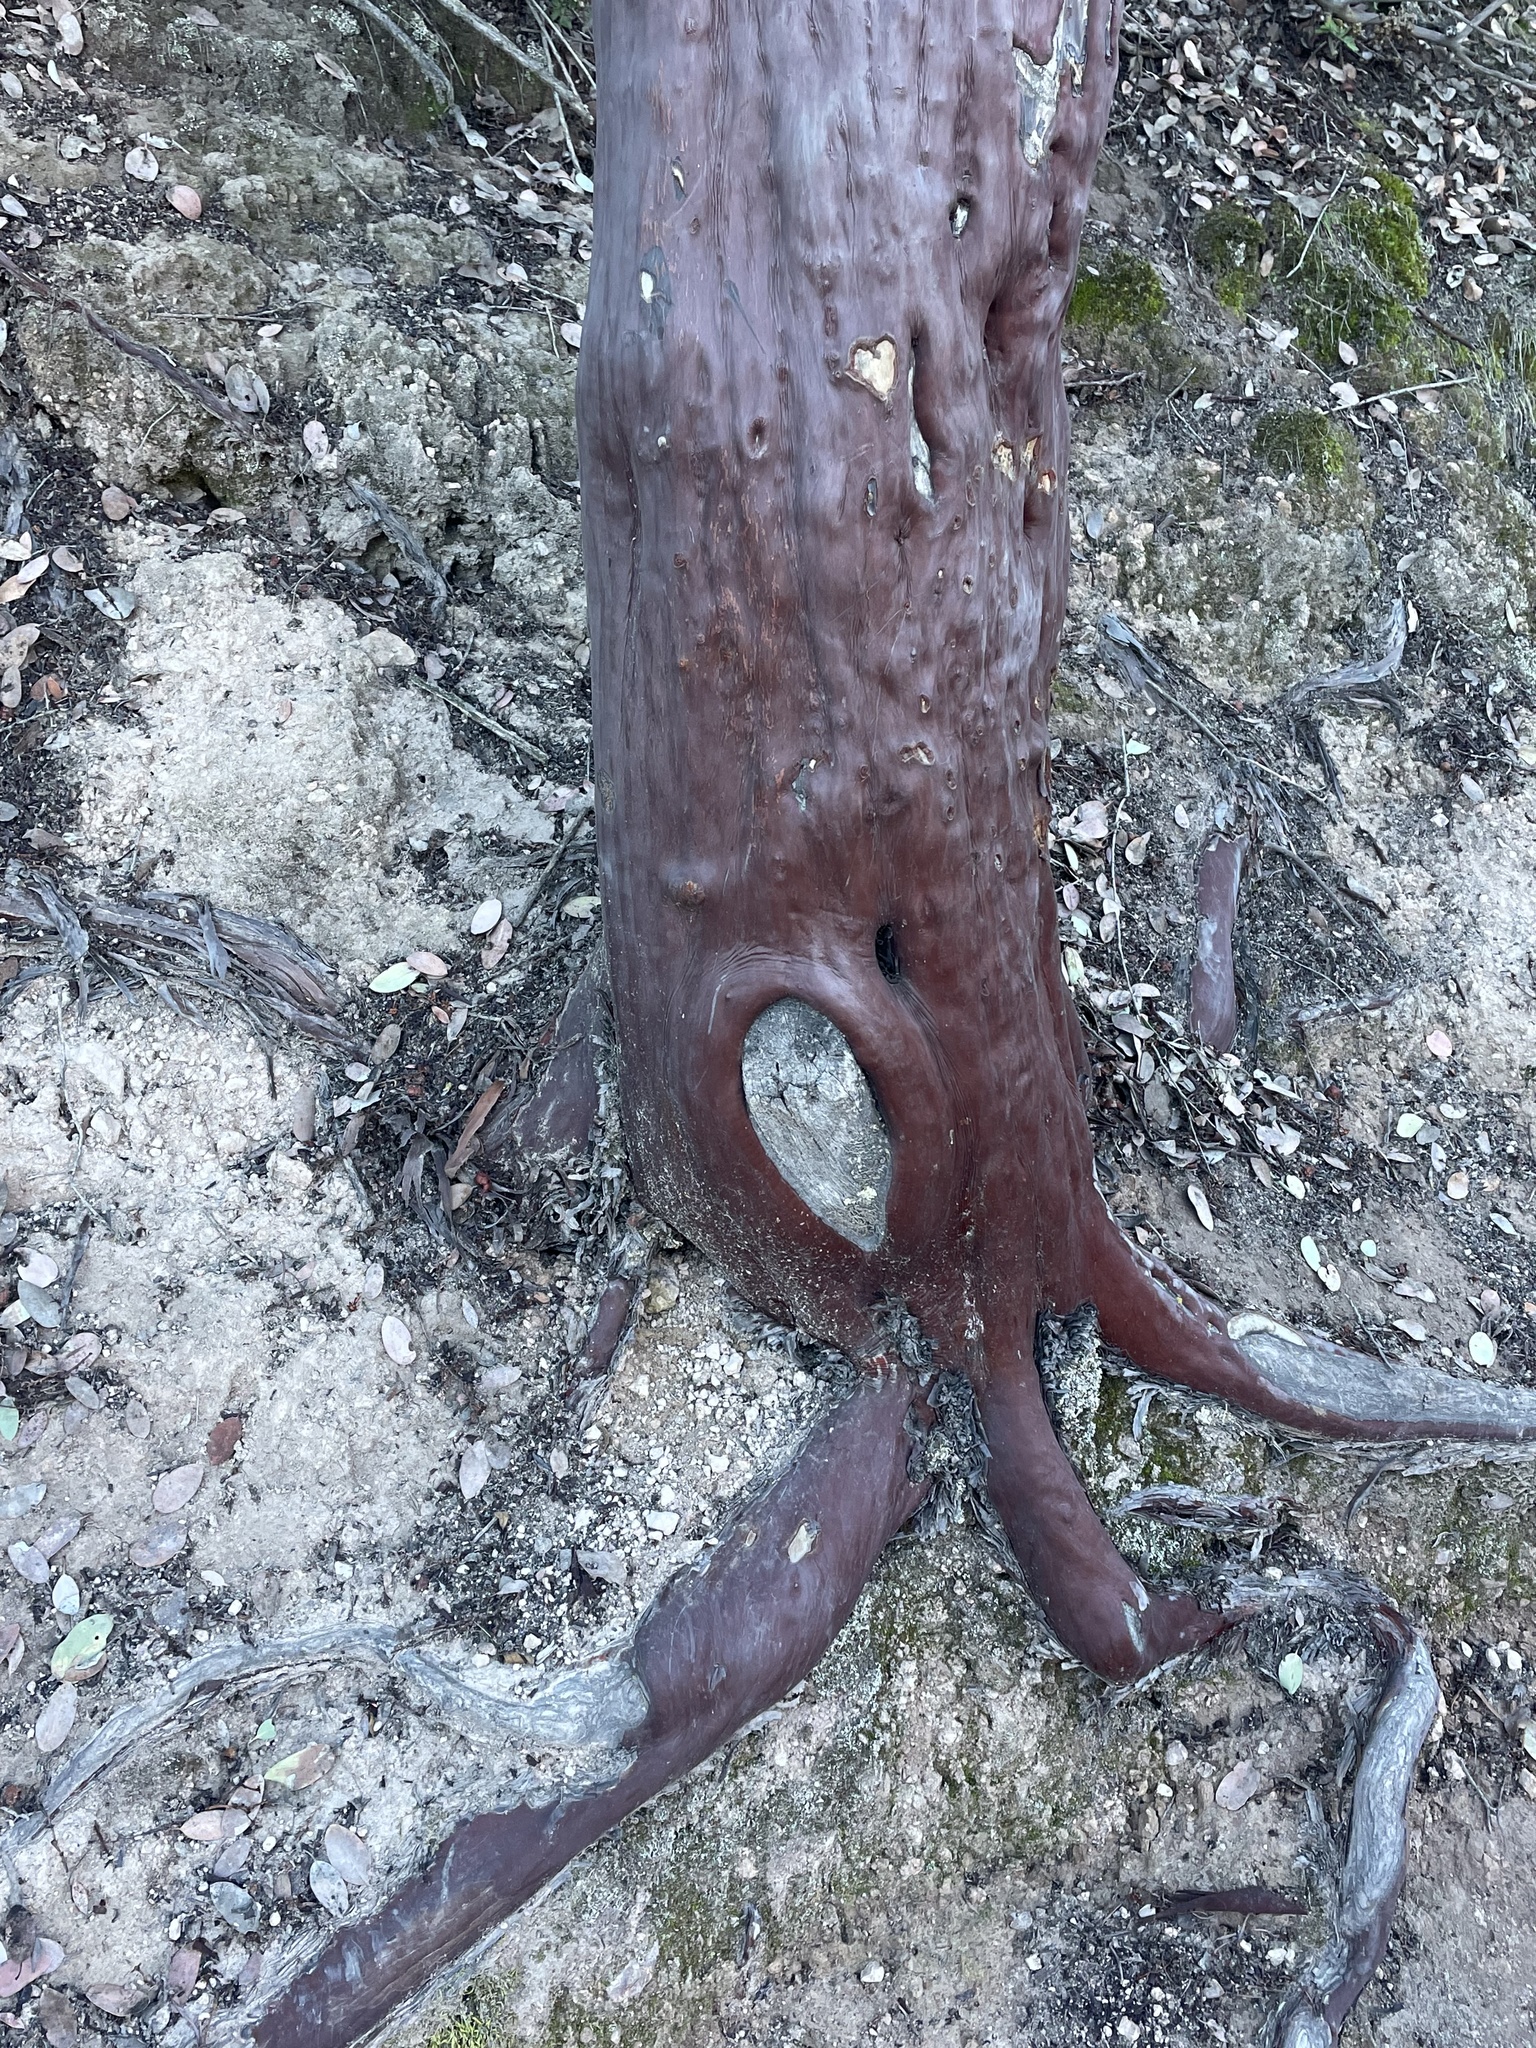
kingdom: Plantae
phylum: Tracheophyta
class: Magnoliopsida
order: Ericales
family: Ericaceae
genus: Arctostaphylos
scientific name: Arctostaphylos glauca
